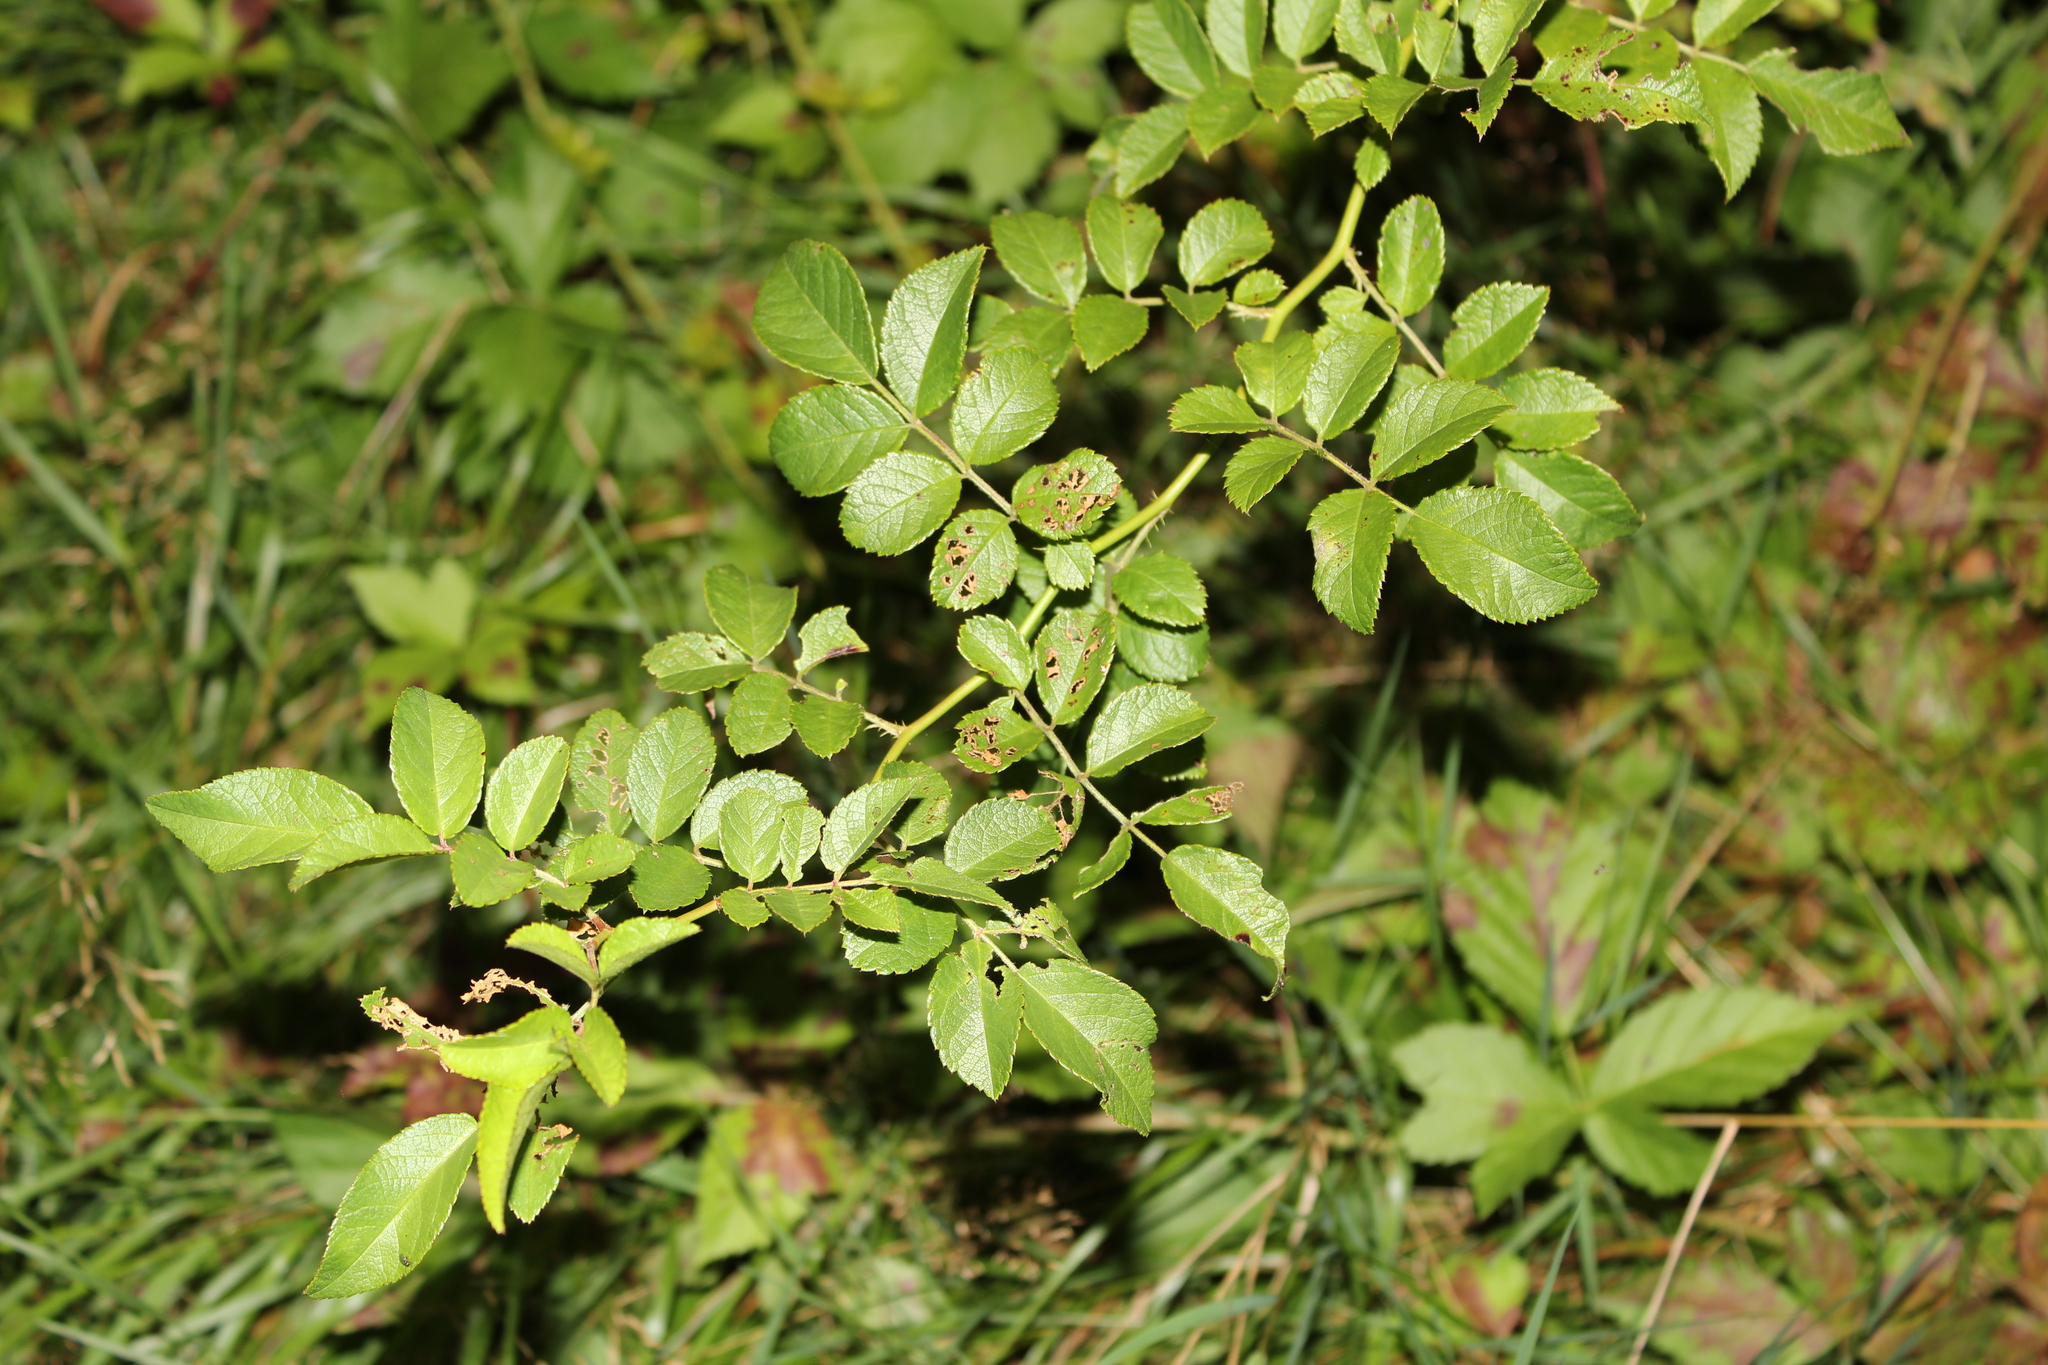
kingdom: Plantae
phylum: Tracheophyta
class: Magnoliopsida
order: Rosales
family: Rosaceae
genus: Rosa
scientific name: Rosa multiflora
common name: Multiflora rose
